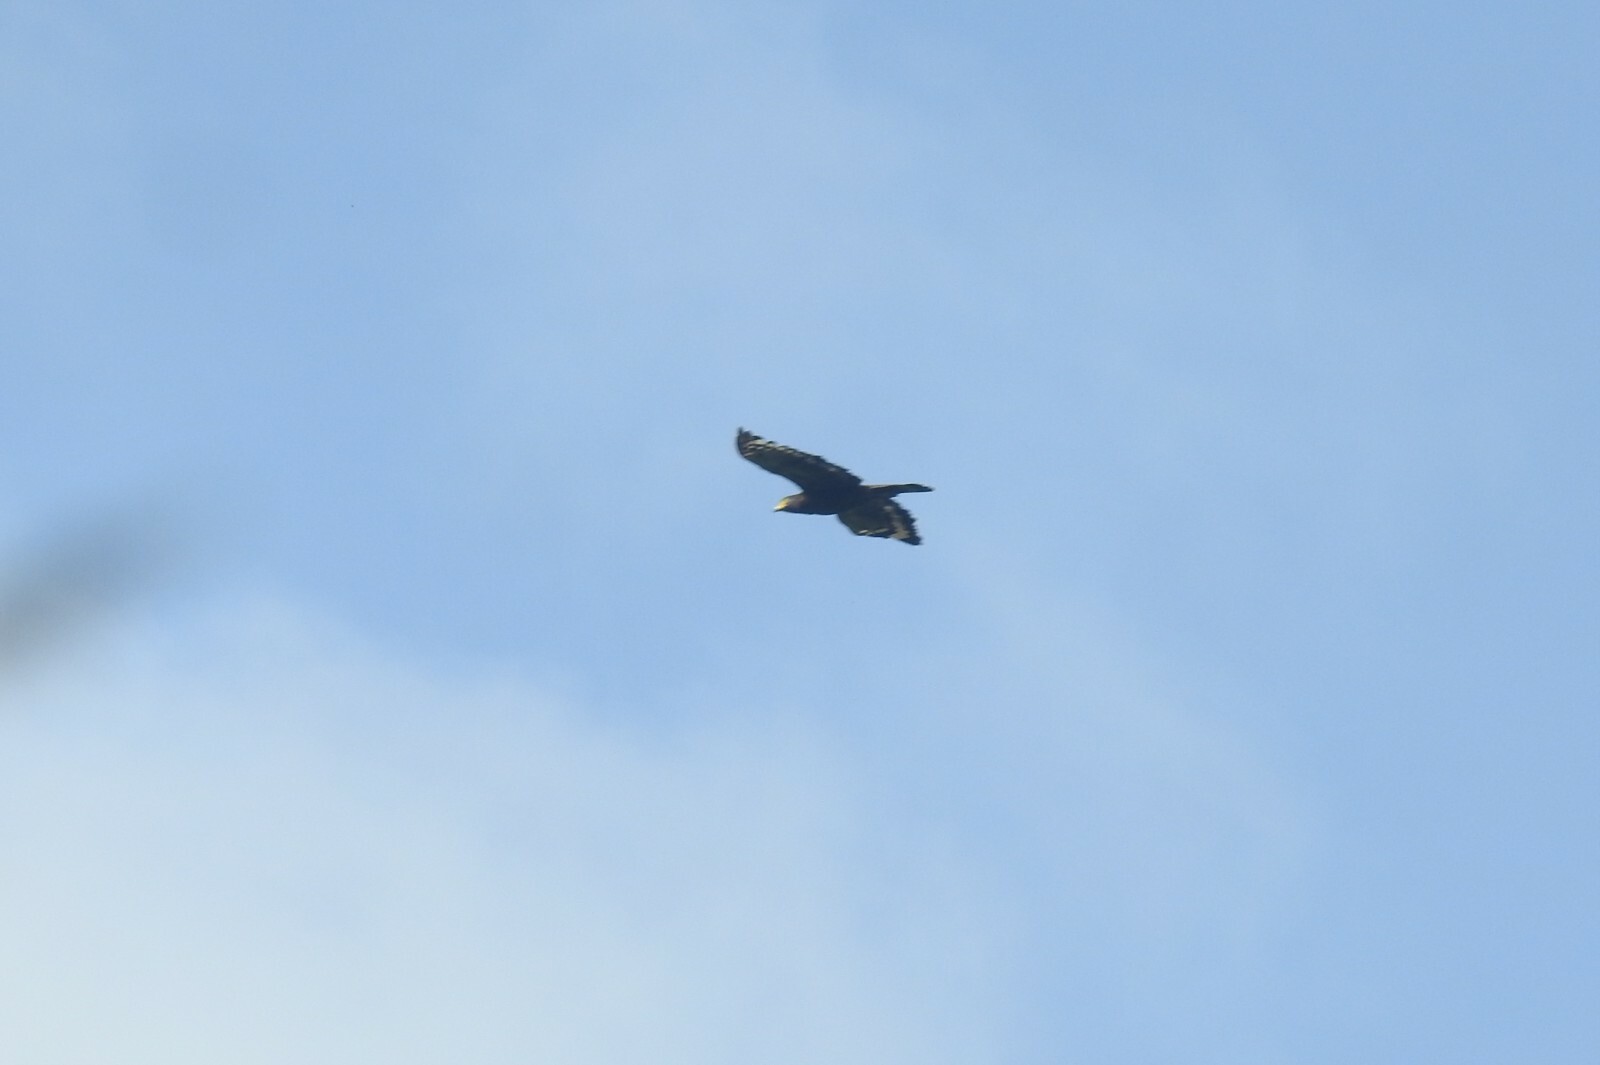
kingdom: Animalia
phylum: Chordata
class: Aves
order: Accipitriformes
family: Accipitridae
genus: Spilornis
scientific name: Spilornis cheela
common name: Crested serpent eagle
